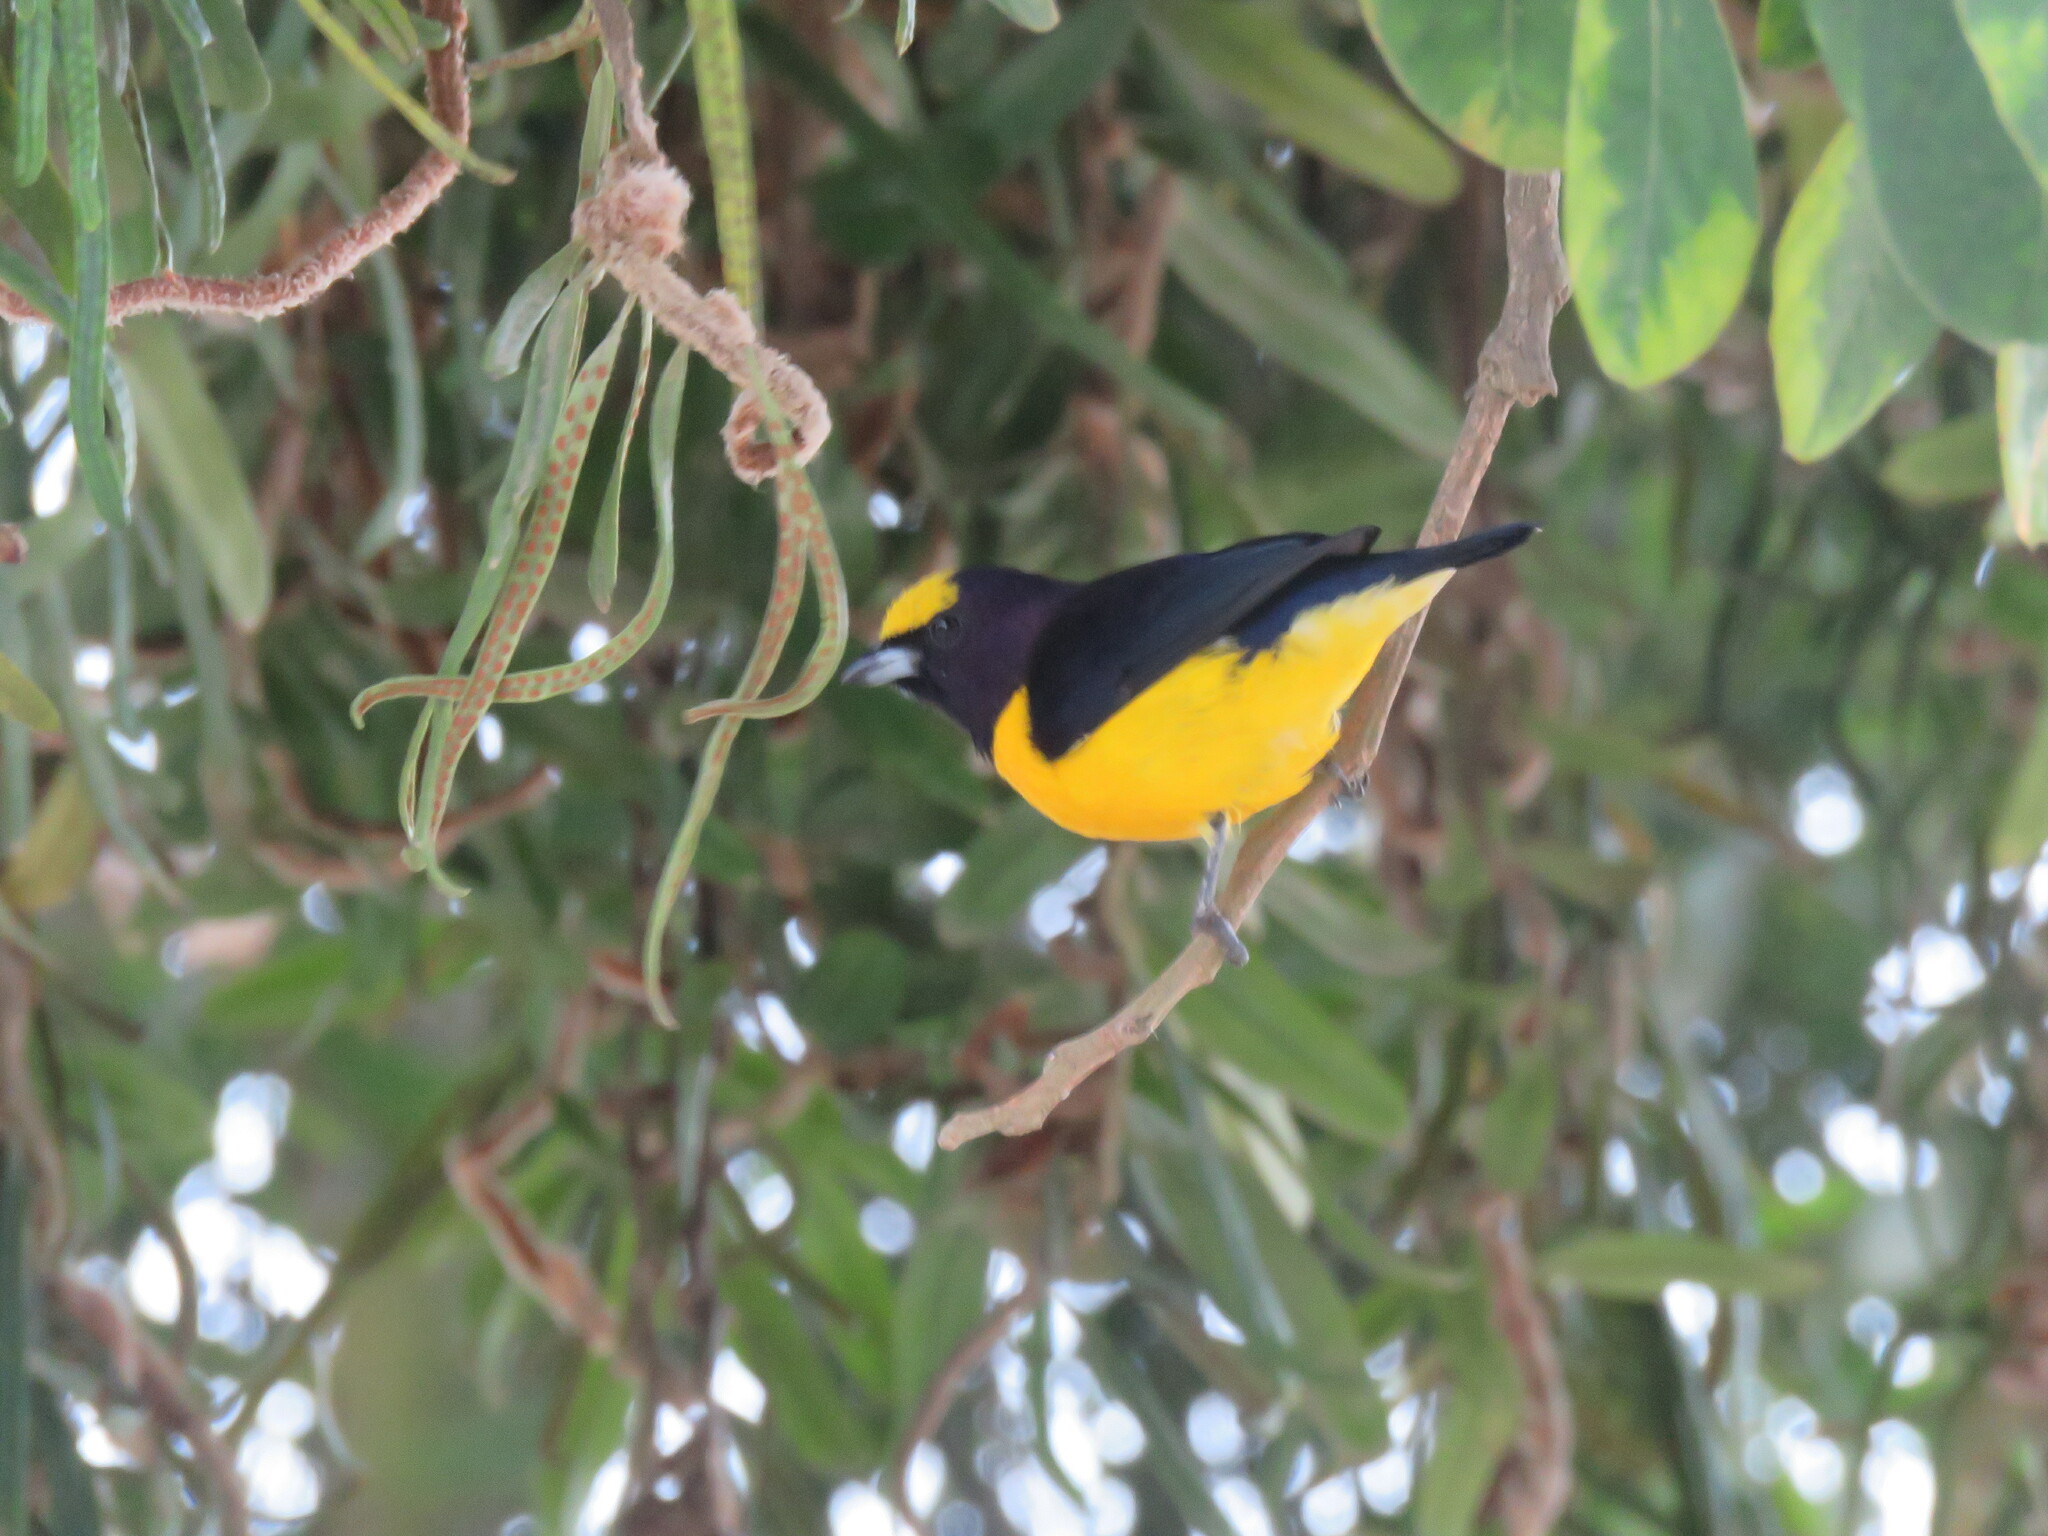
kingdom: Animalia
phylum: Chordata
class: Aves
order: Passeriformes
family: Fringillidae
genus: Euphonia
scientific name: Euphonia chlorotica
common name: Purple-throated euphonia
